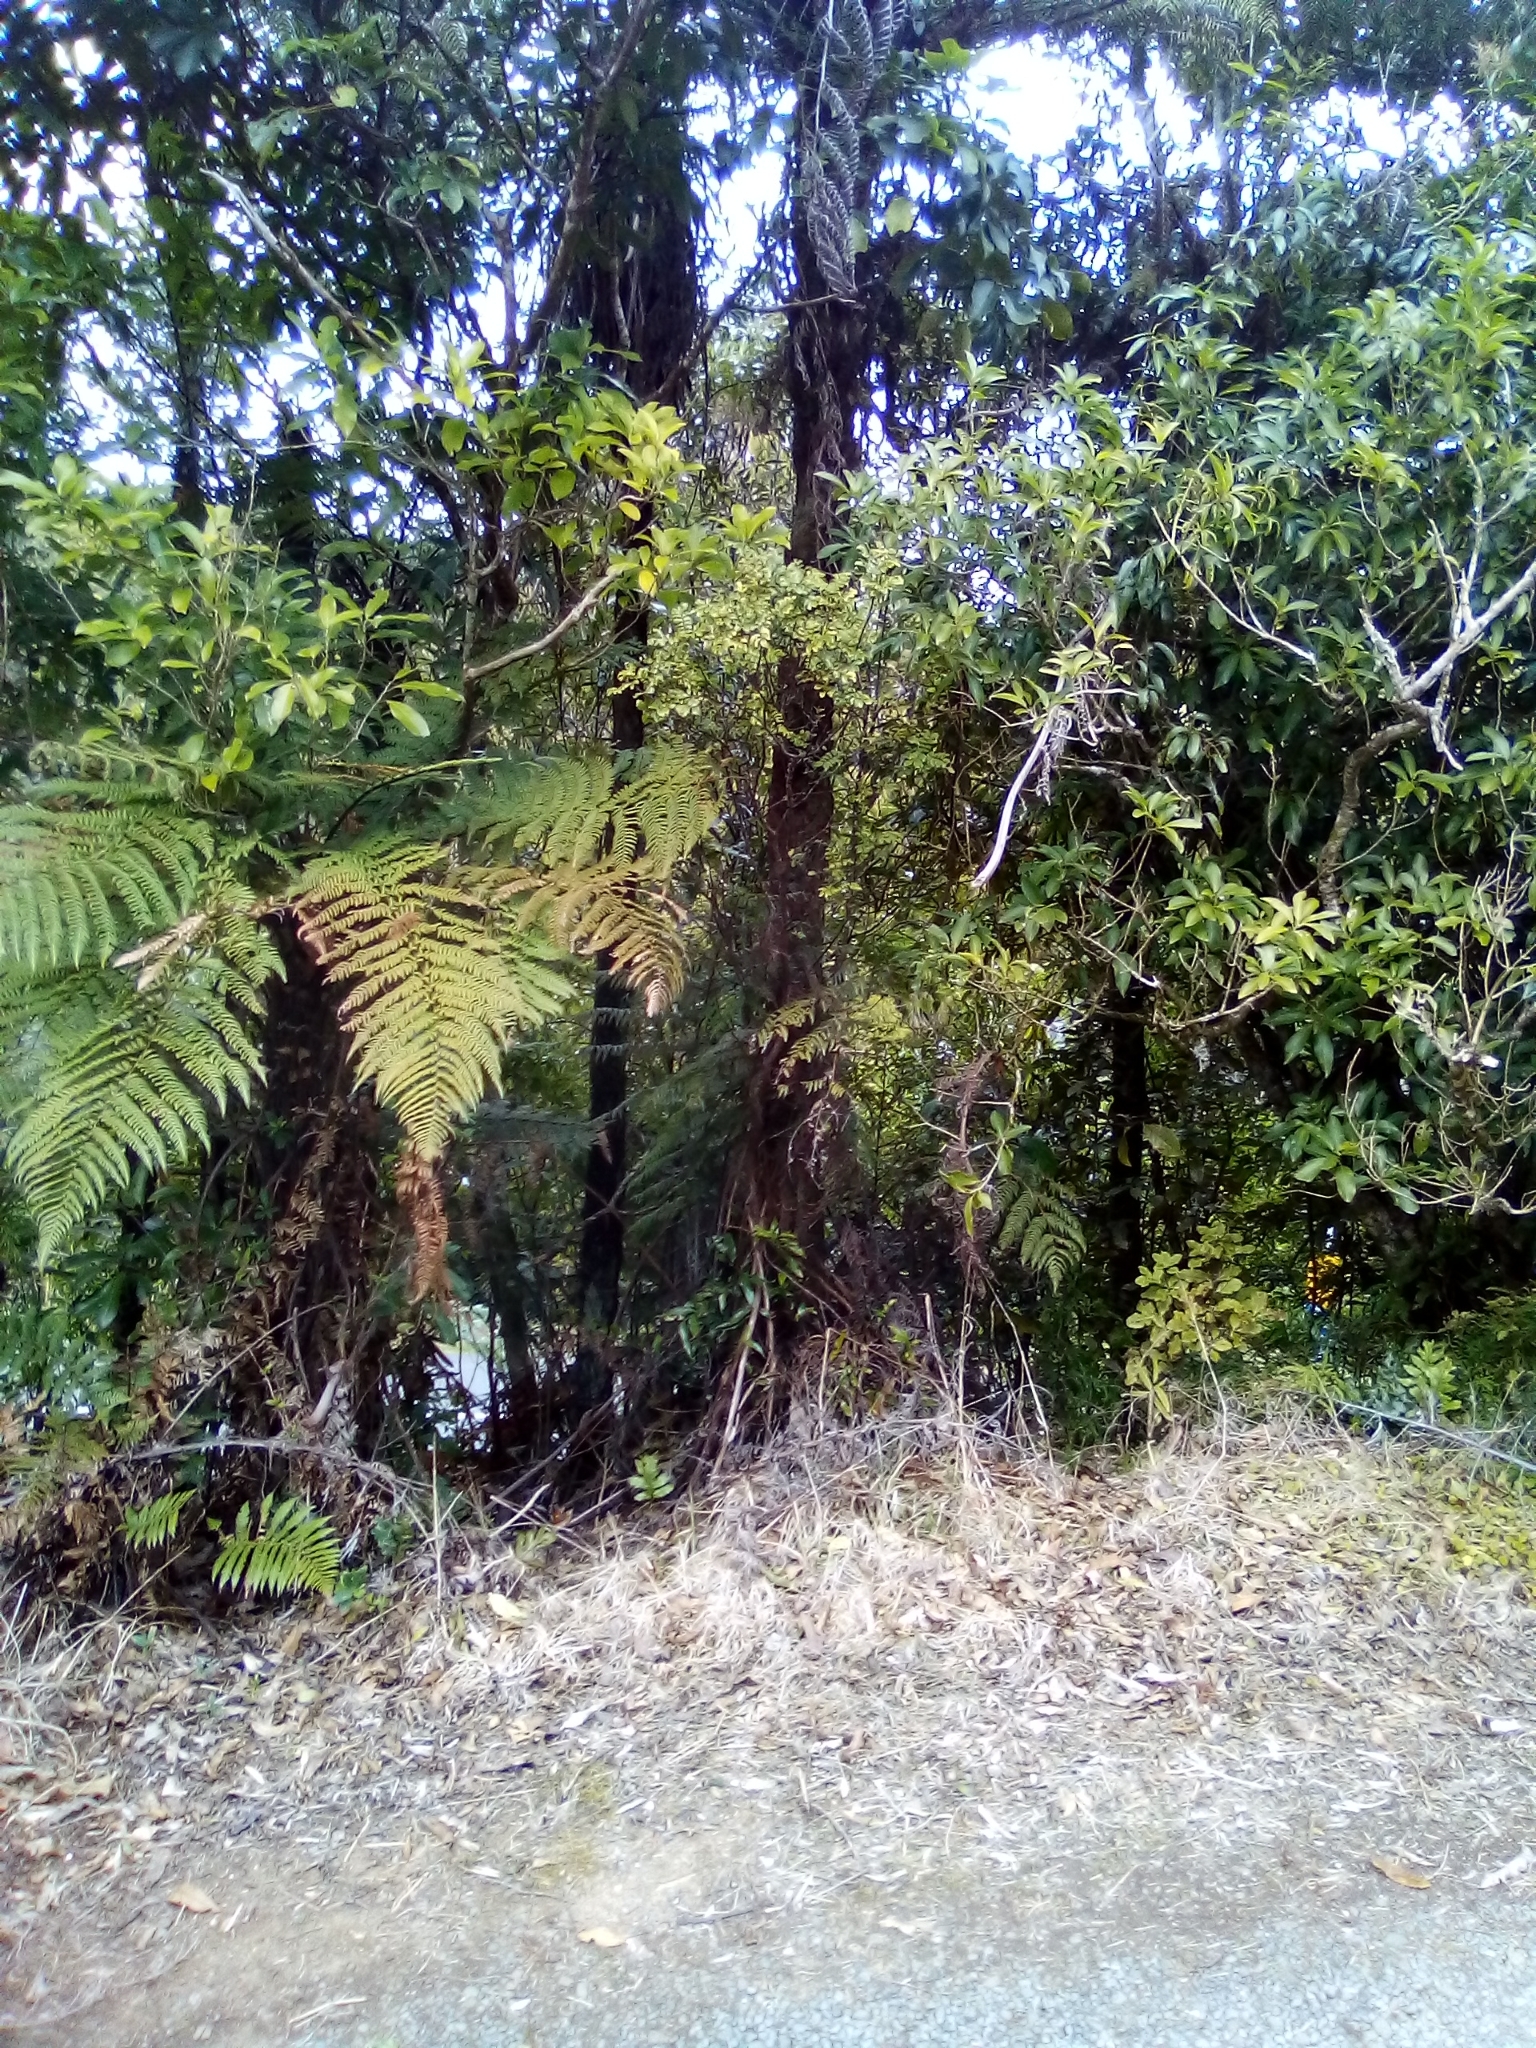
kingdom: Plantae
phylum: Tracheophyta
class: Magnoliopsida
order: Oxalidales
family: Cunoniaceae
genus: Pterophylla
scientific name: Pterophylla sylvicola
